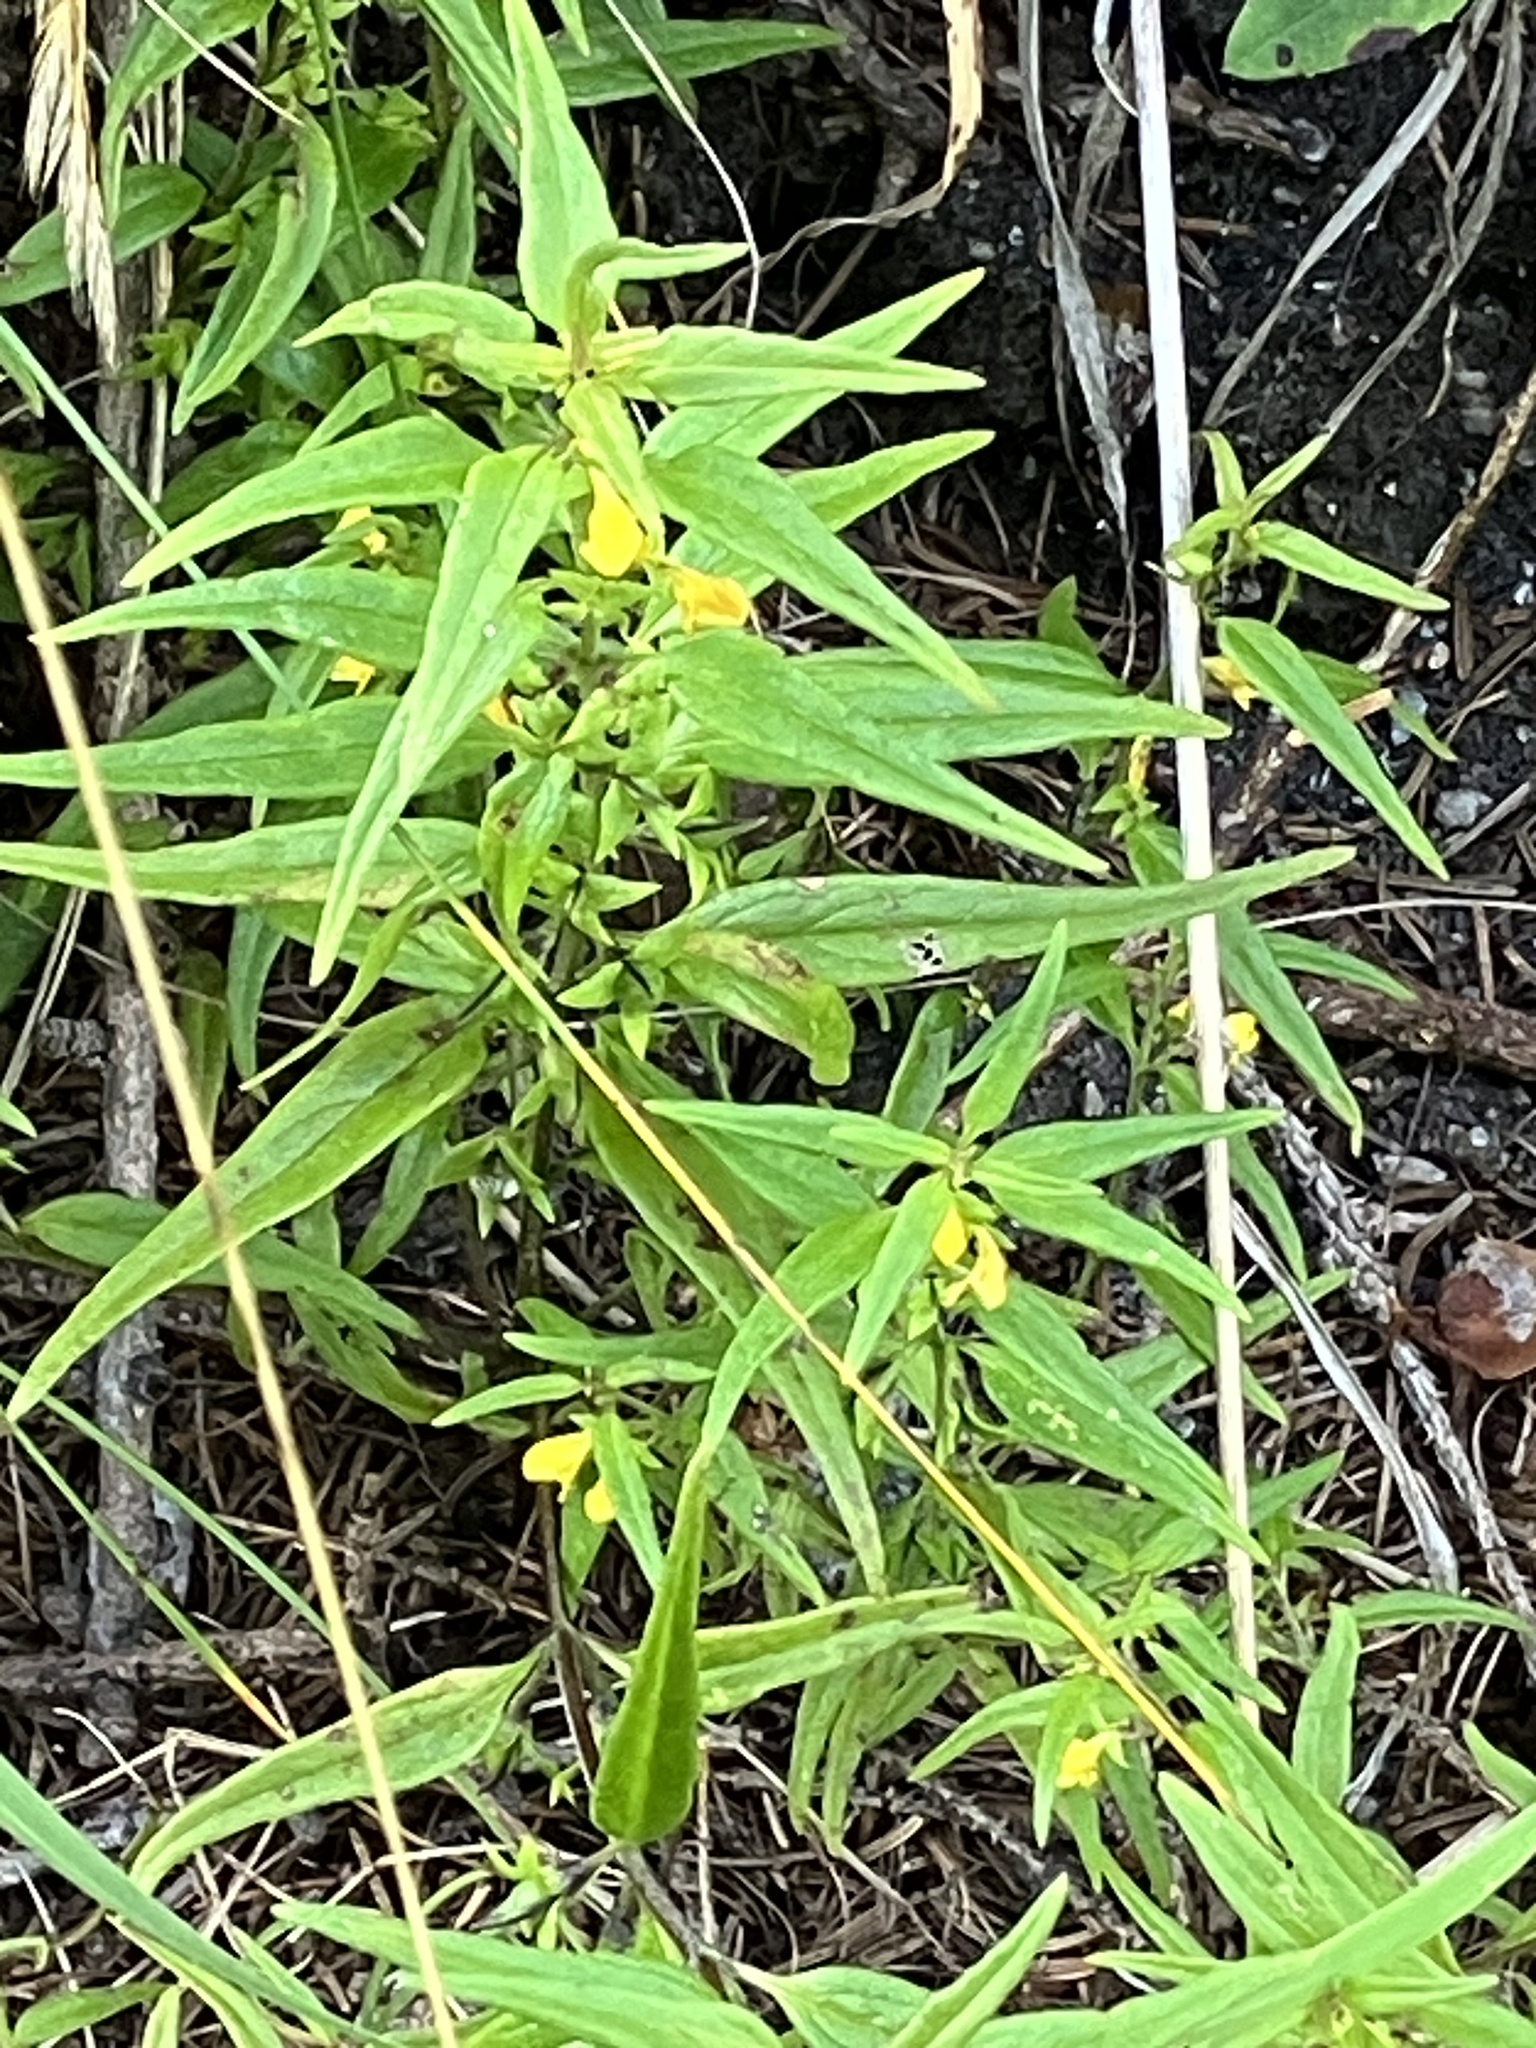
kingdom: Plantae
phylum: Tracheophyta
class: Magnoliopsida
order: Lamiales
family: Orobanchaceae
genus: Melampyrum
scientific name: Melampyrum sylvaticum
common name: Small cow-wheat
